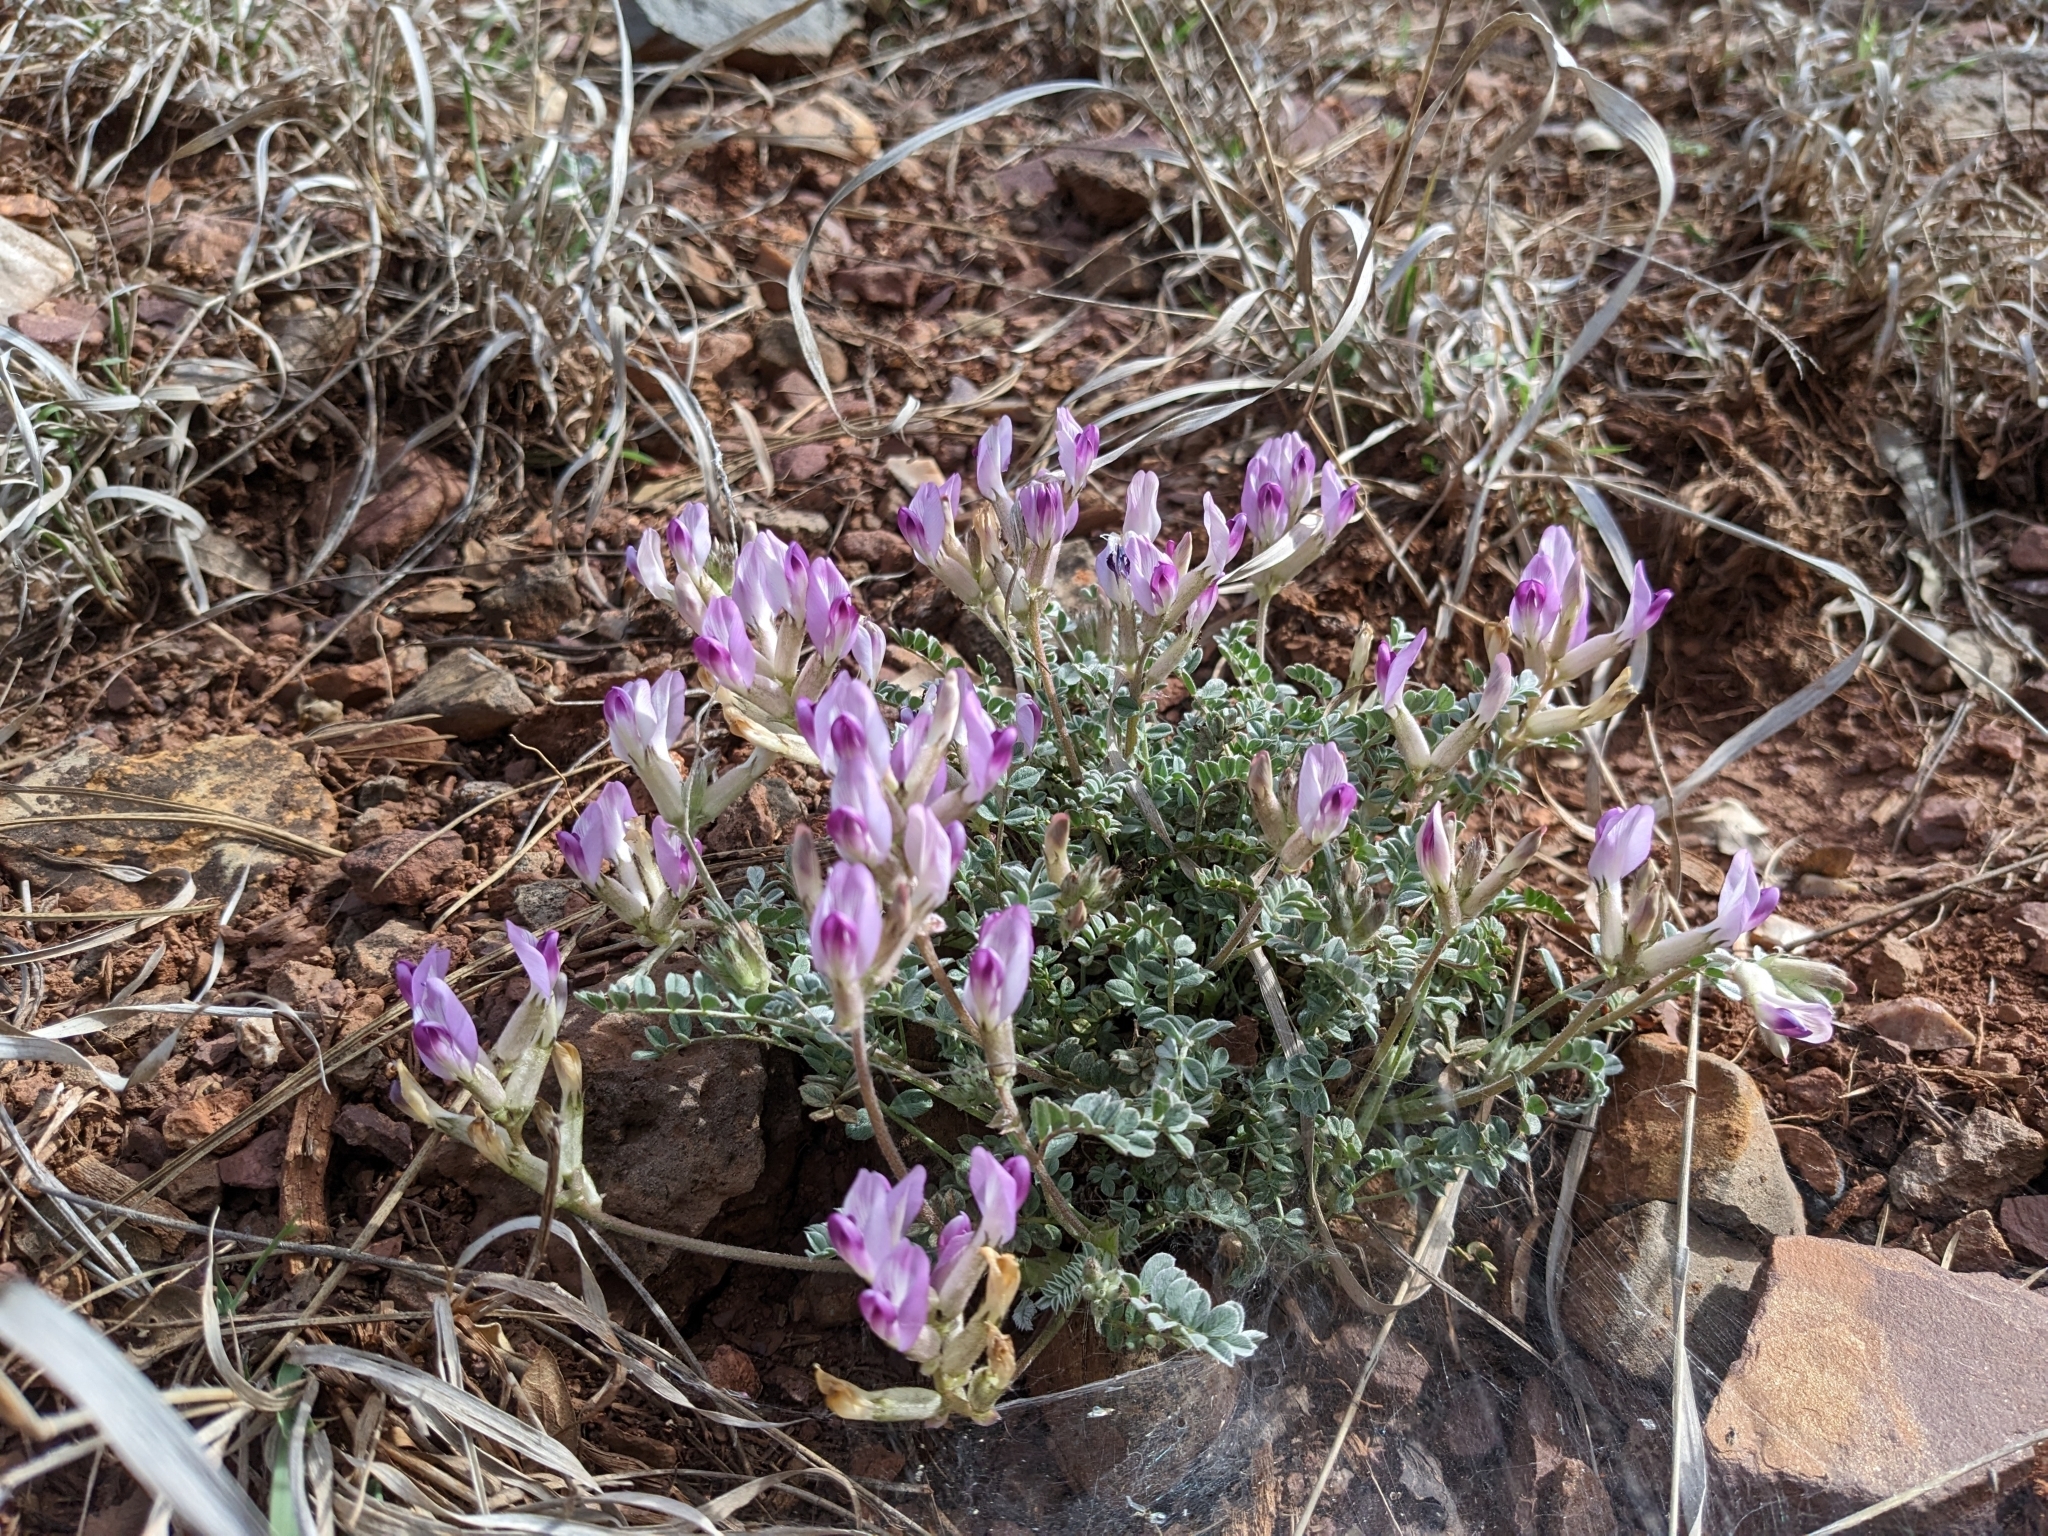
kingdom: Plantae
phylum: Tracheophyta
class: Magnoliopsida
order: Fabales
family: Fabaceae
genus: Astragalus
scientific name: Astragalus amphioxys
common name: Crescent milk-vetch
